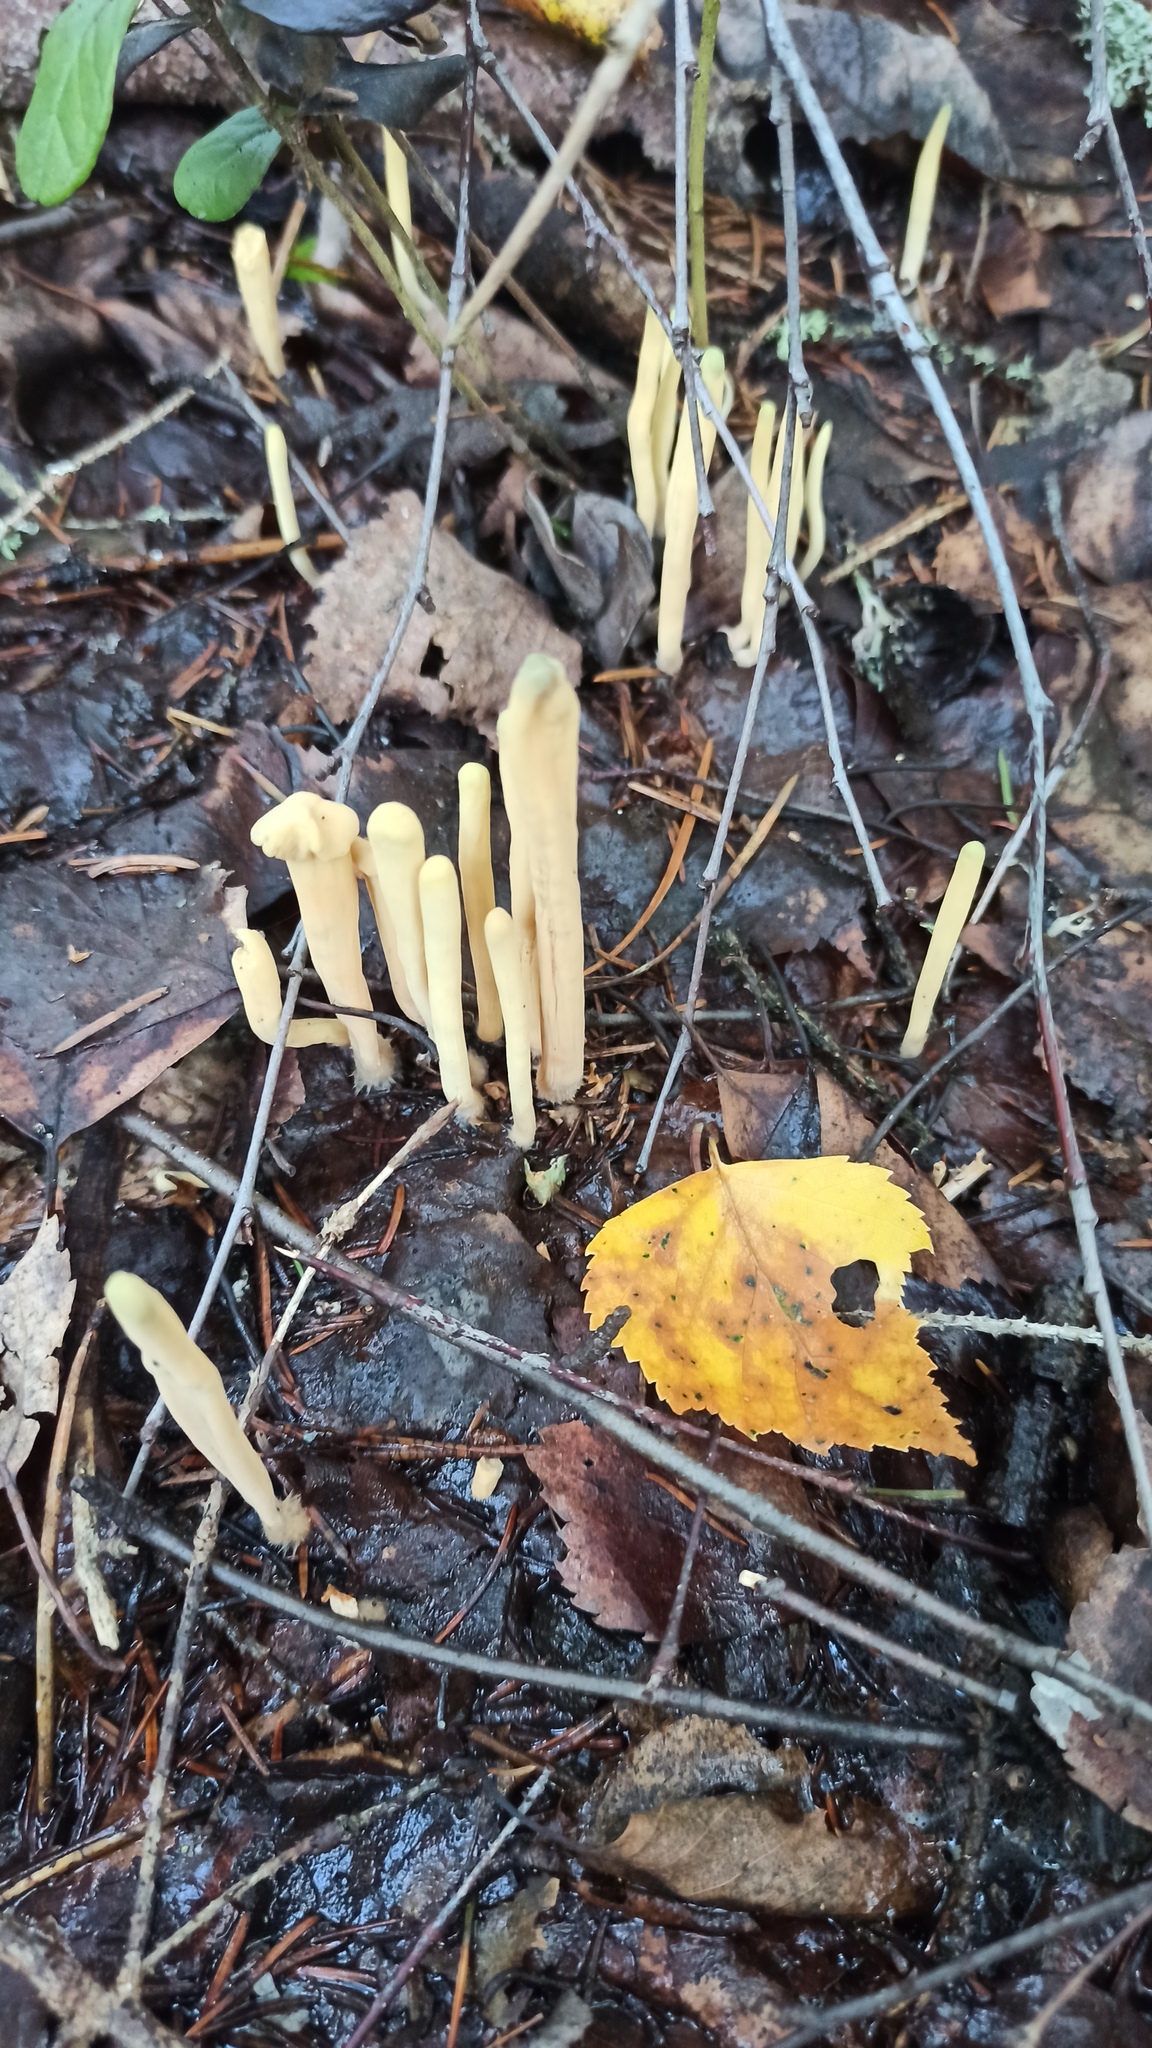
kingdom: Fungi
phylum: Basidiomycota
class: Agaricomycetes
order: Gomphales
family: Clavariadelphaceae
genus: Clavariadelphus
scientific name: Clavariadelphus ligula
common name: Ochre club
